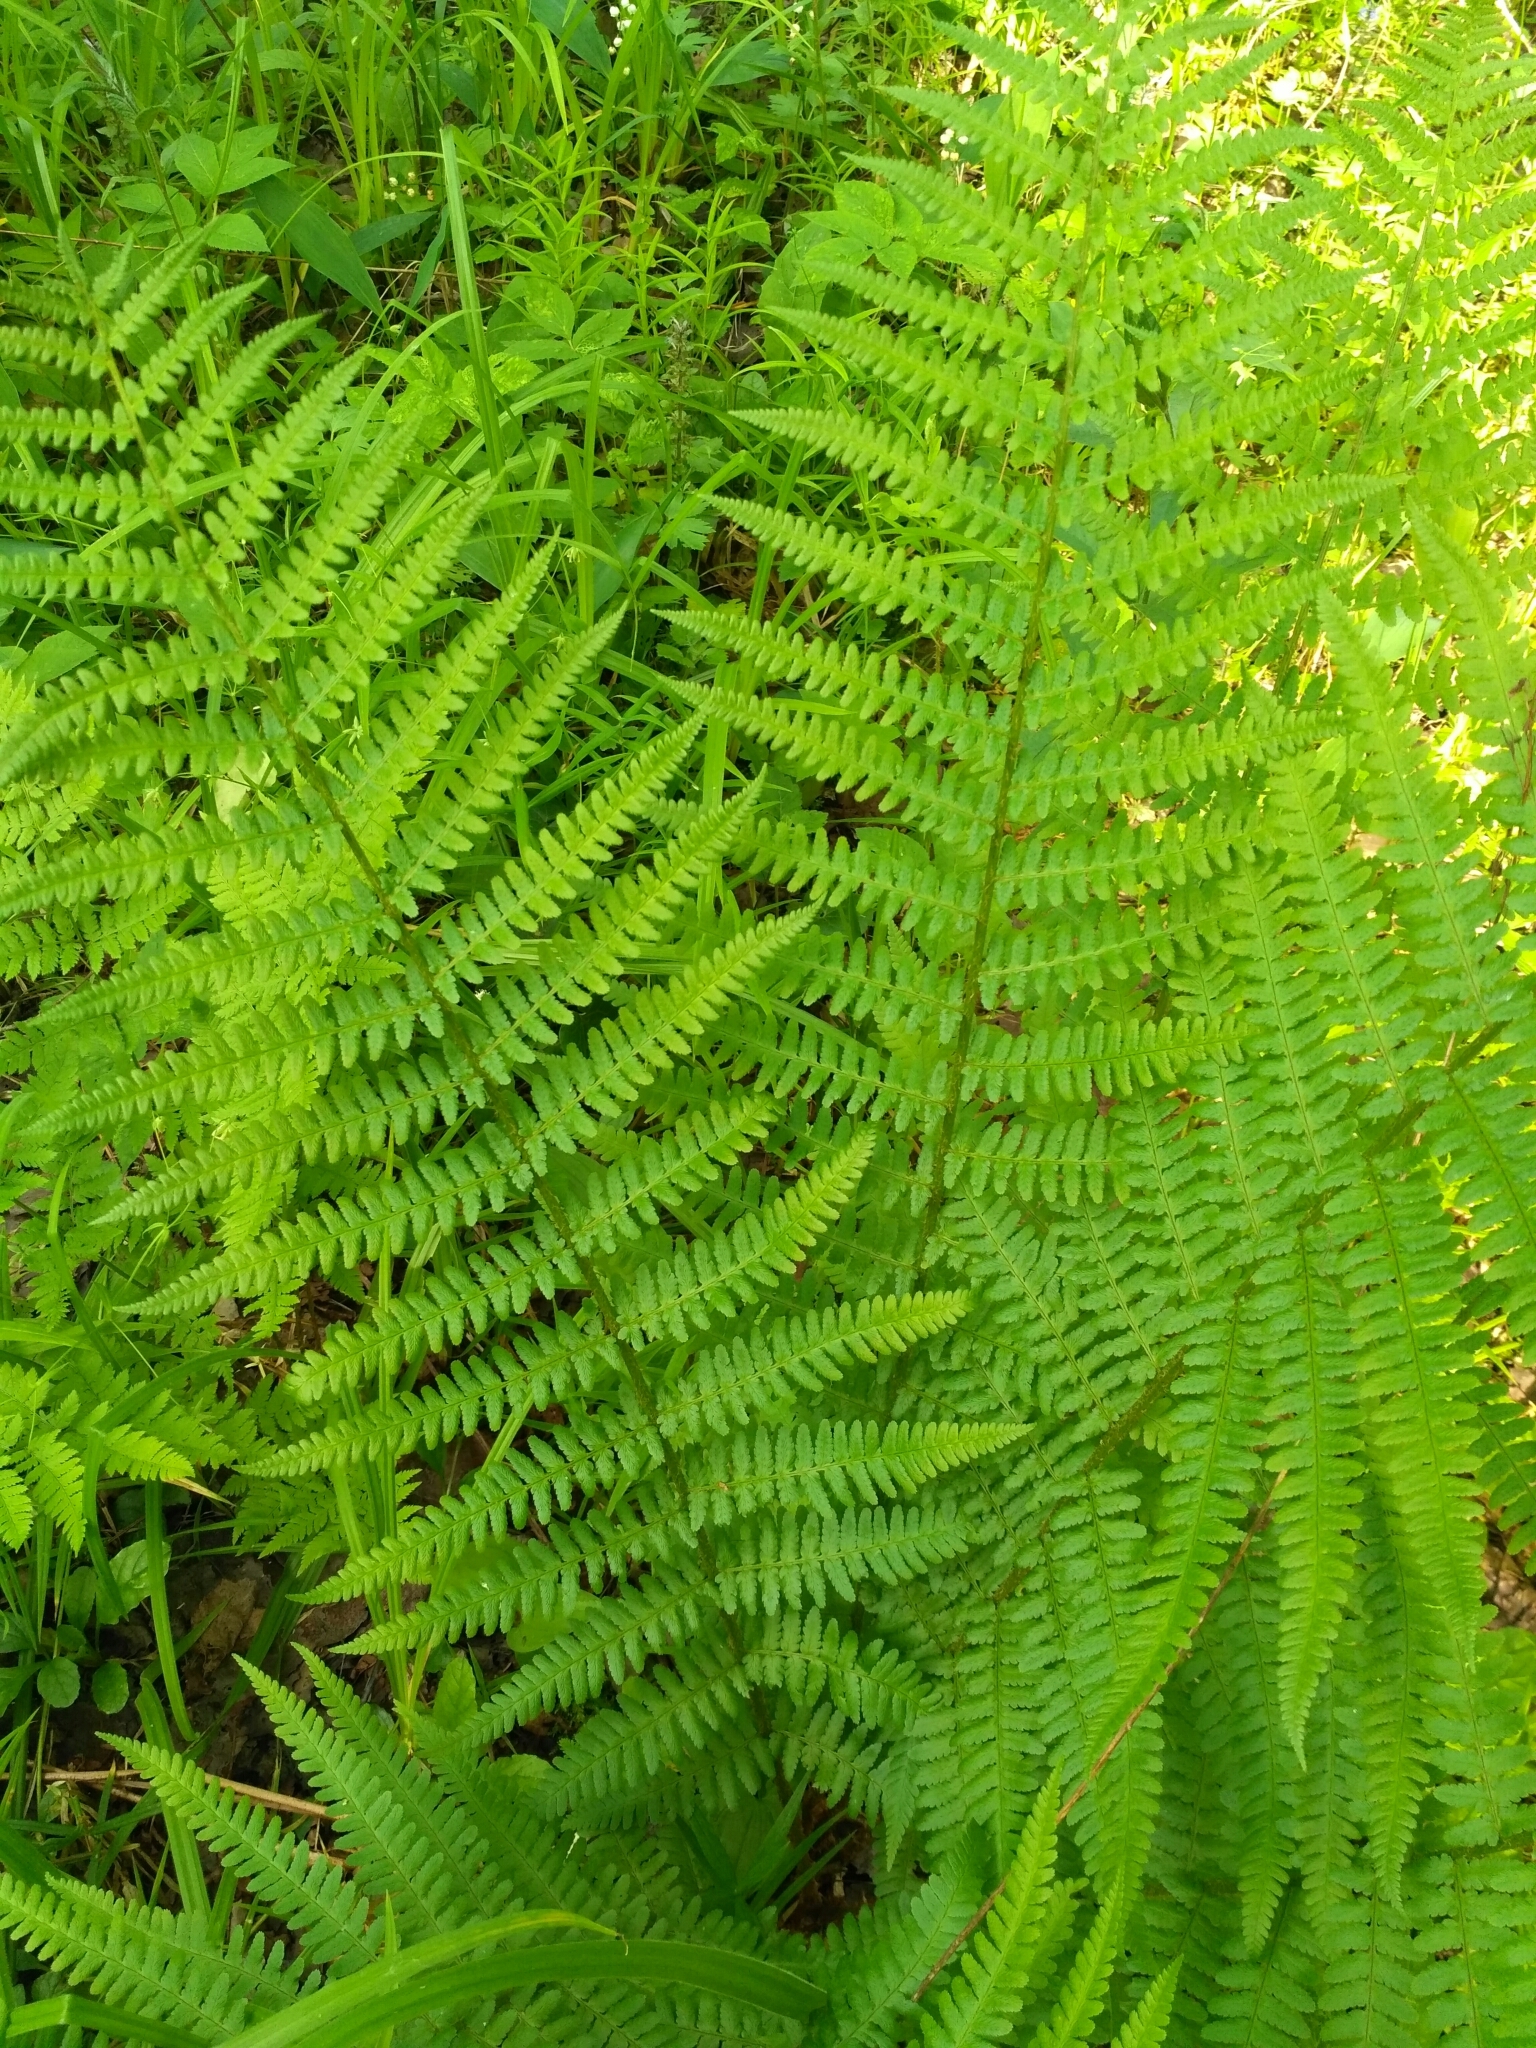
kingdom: Plantae
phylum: Tracheophyta
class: Polypodiopsida
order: Polypodiales
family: Athyriaceae
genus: Athyrium
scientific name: Athyrium filix-femina
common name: Lady fern
